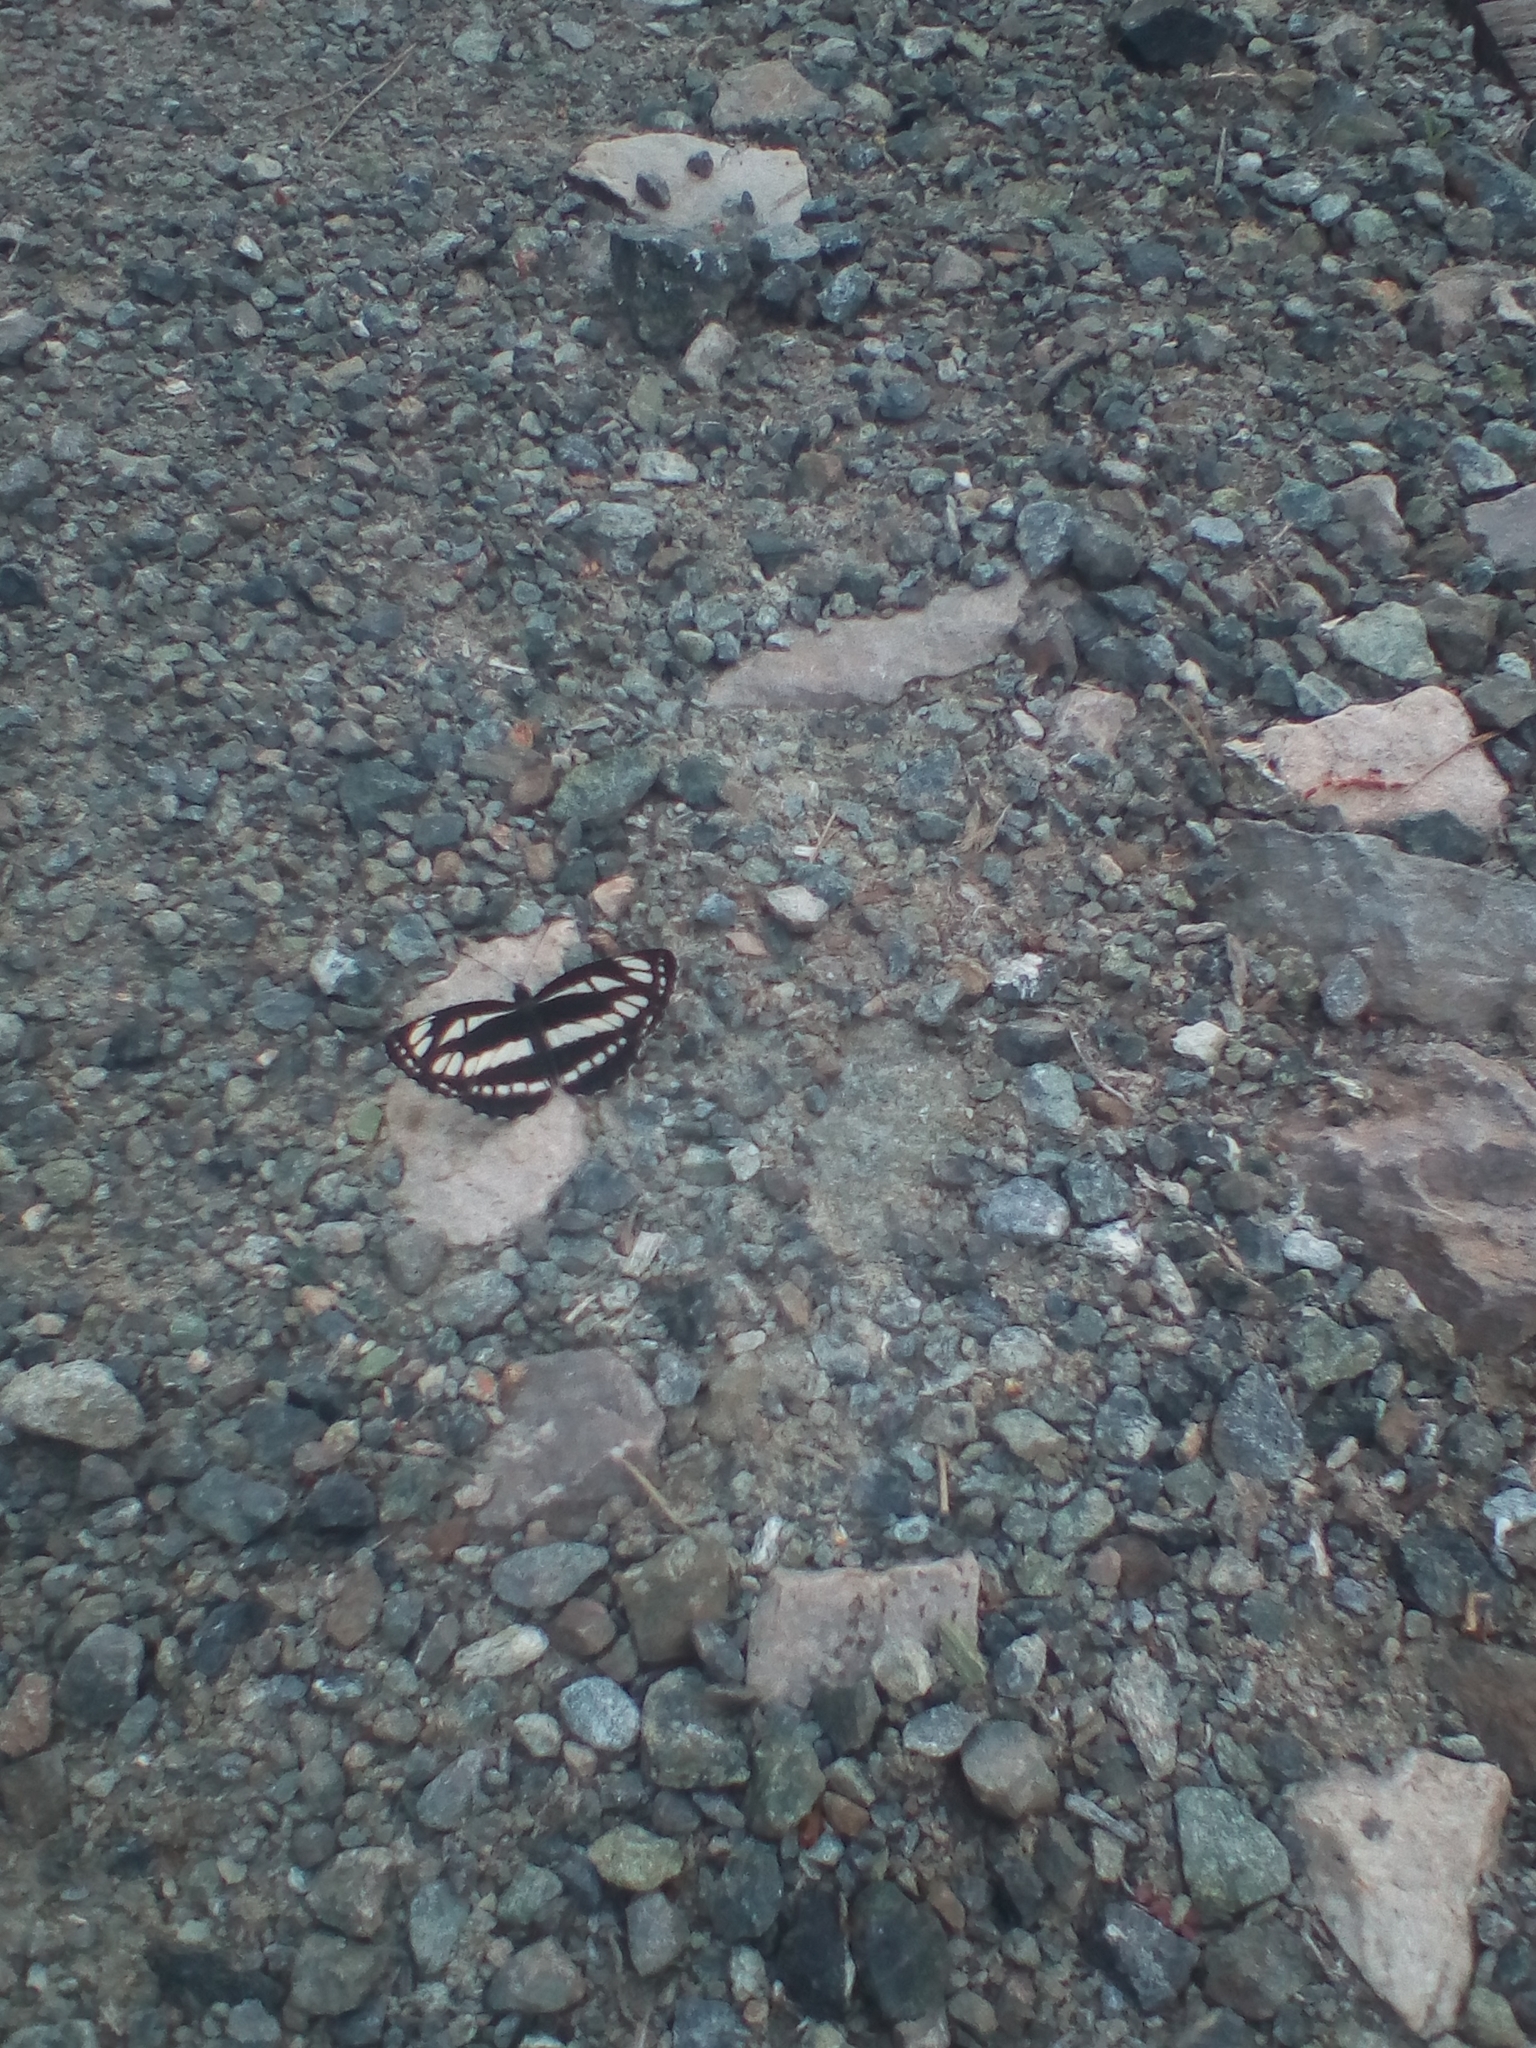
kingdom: Animalia
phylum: Arthropoda
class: Insecta
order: Lepidoptera
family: Nymphalidae
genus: Neptis
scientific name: Neptis sappho
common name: Common glider
